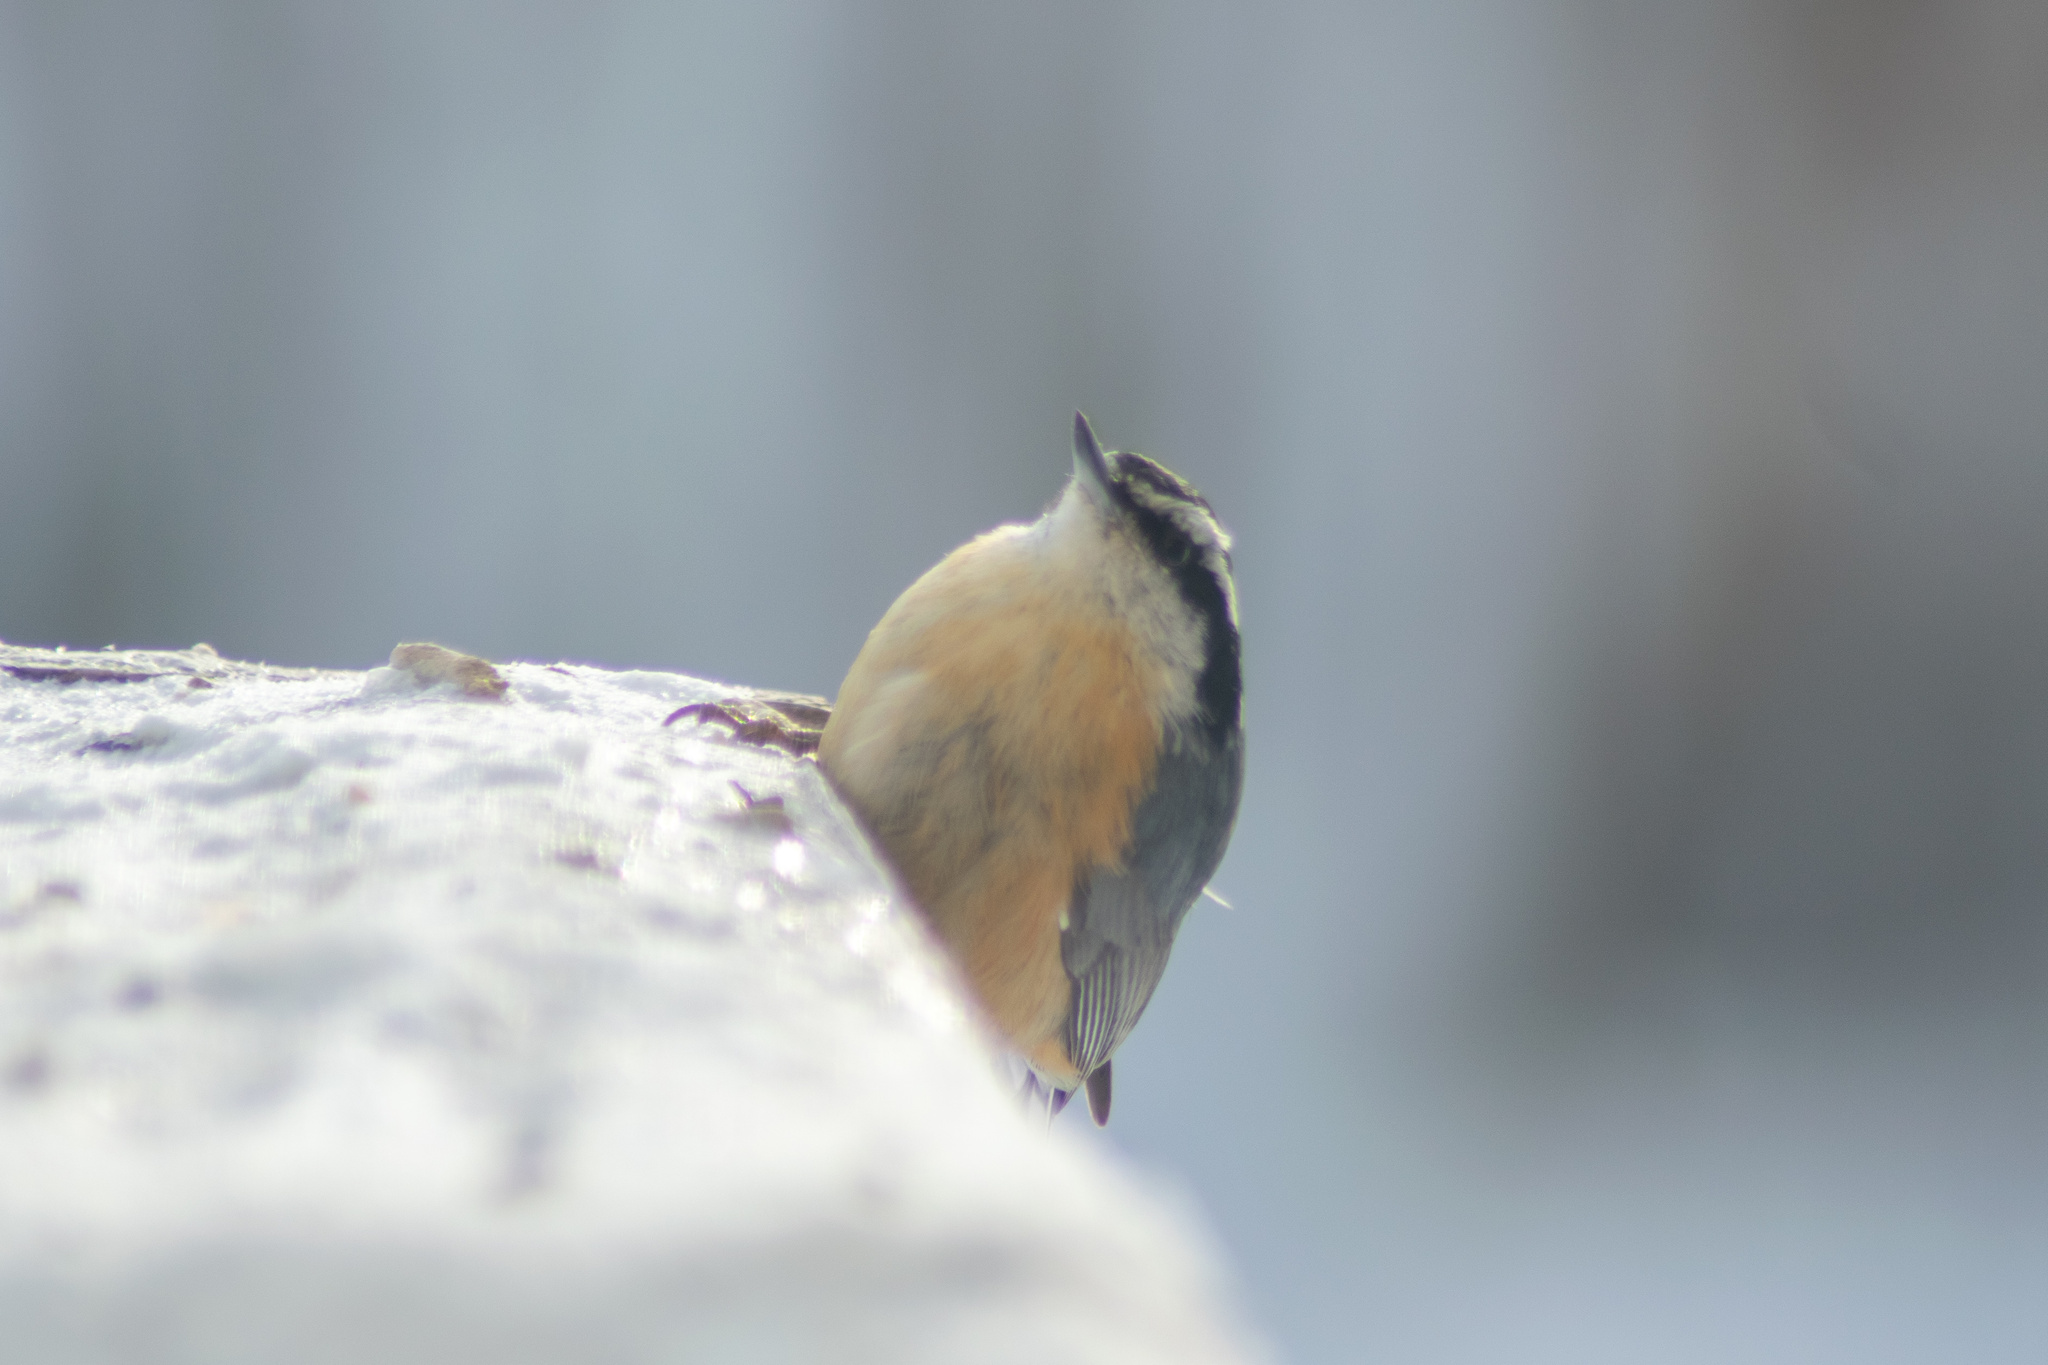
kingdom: Animalia
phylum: Chordata
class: Aves
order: Passeriformes
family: Sittidae
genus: Sitta
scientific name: Sitta canadensis
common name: Red-breasted nuthatch
